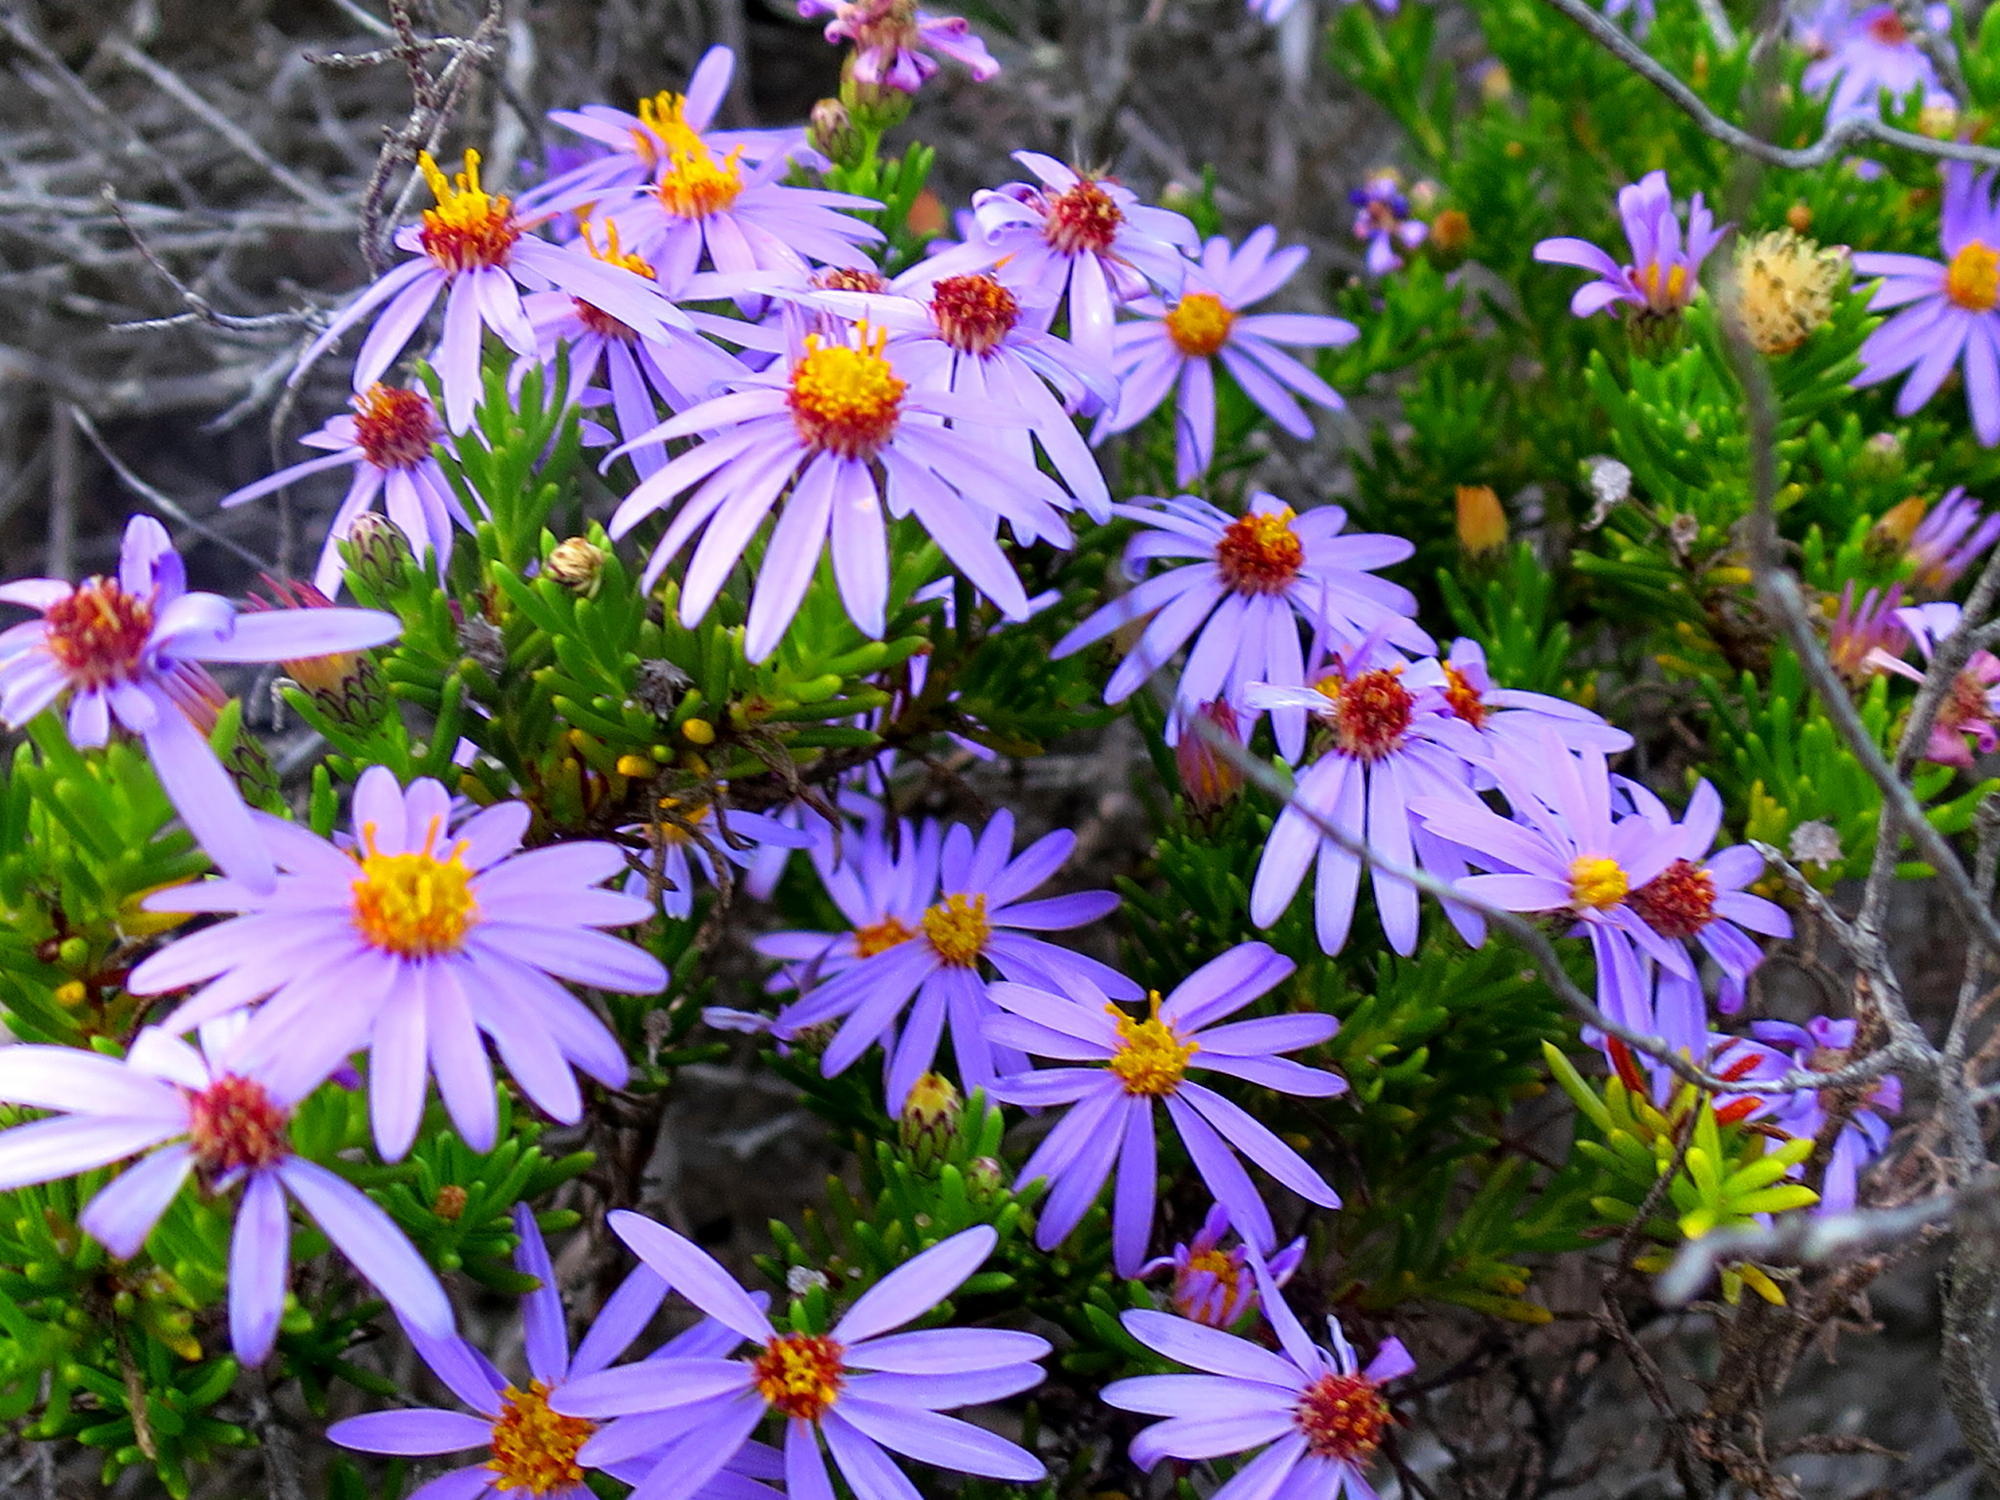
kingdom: Plantae
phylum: Tracheophyta
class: Magnoliopsida
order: Asterales
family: Asteraceae
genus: Felicia
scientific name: Felicia filifolia
